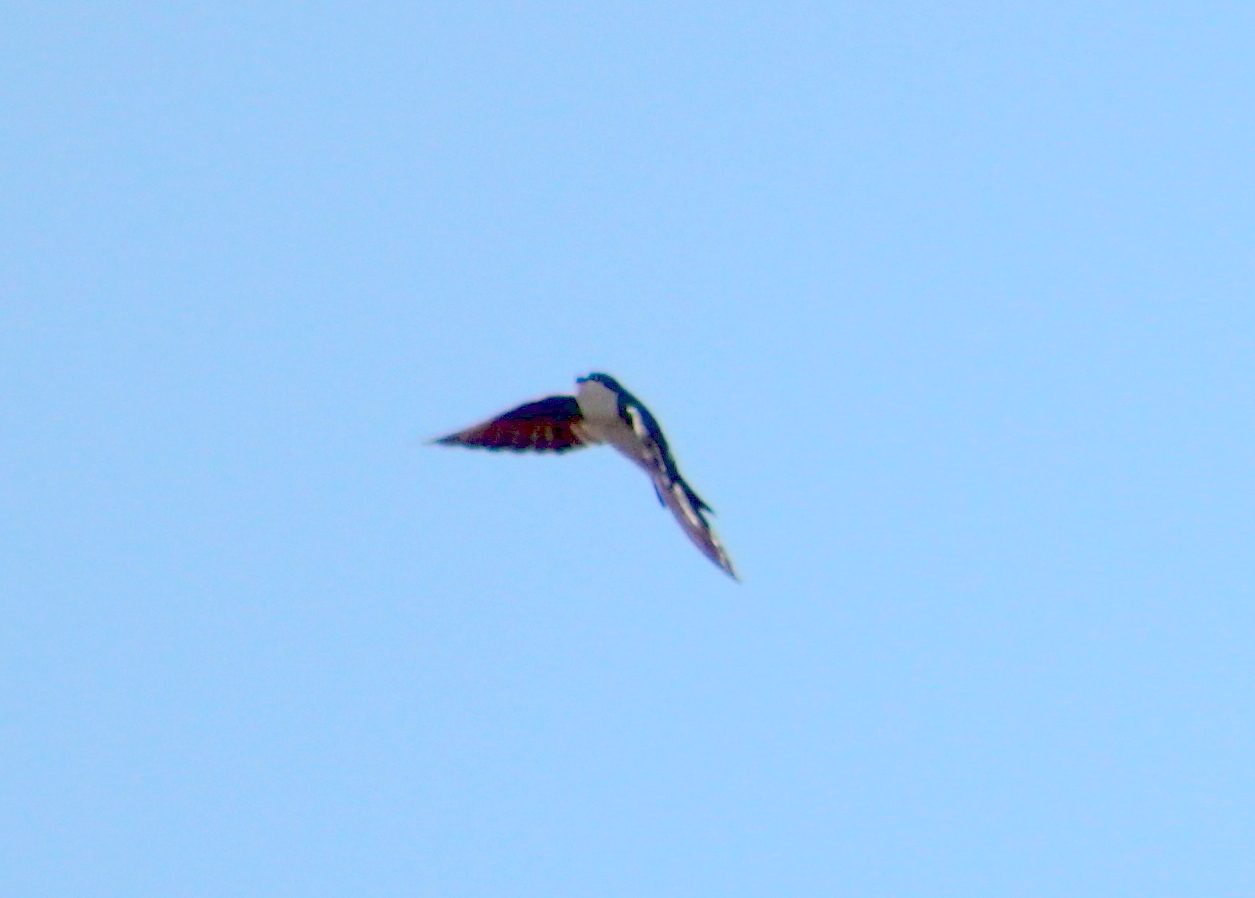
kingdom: Animalia
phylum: Chordata
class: Aves
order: Passeriformes
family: Hirundinidae
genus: Tachycineta
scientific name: Tachycineta bicolor
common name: Tree swallow
